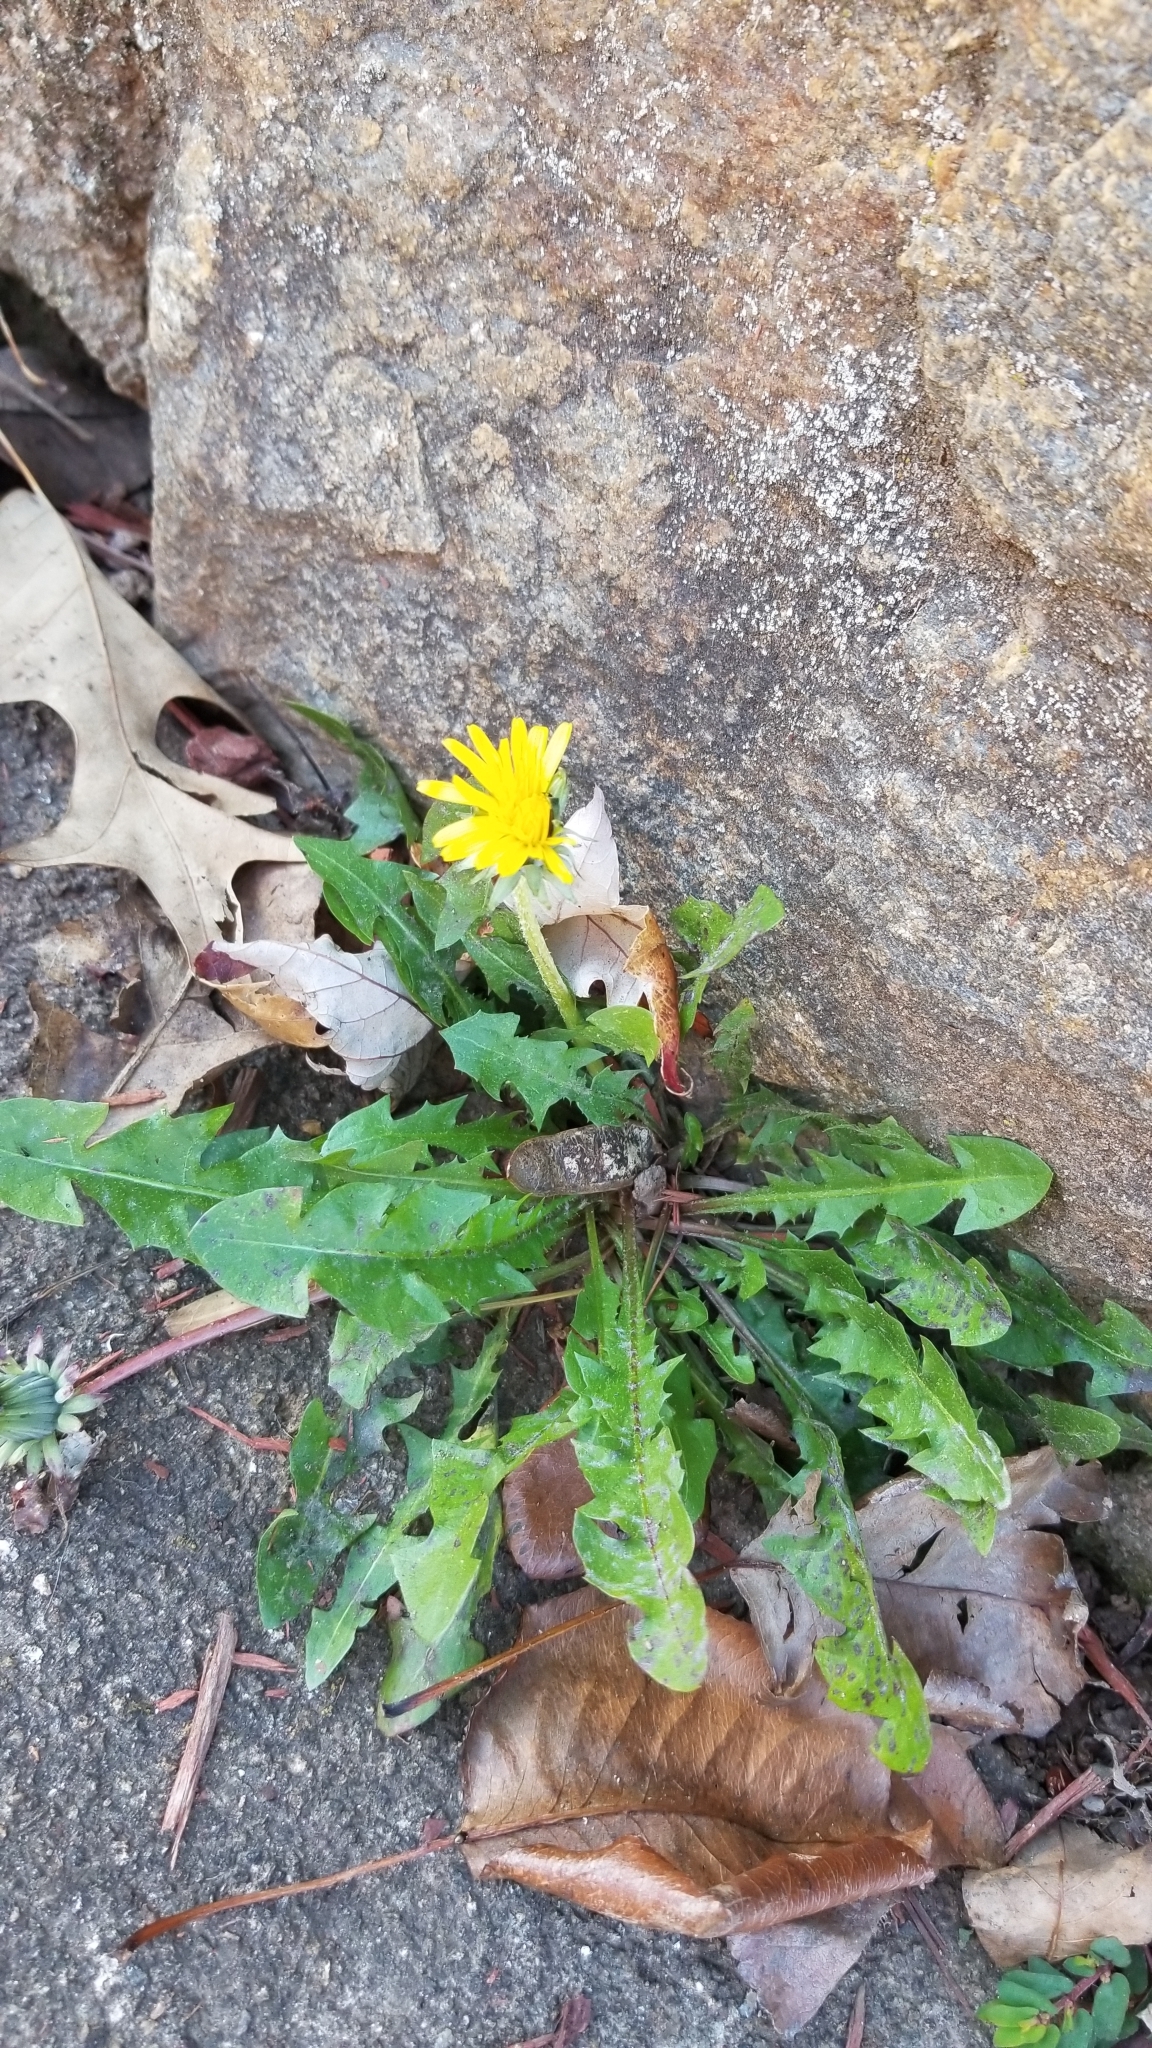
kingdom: Plantae
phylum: Tracheophyta
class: Magnoliopsida
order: Asterales
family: Asteraceae
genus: Taraxacum
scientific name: Taraxacum officinale
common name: Common dandelion
